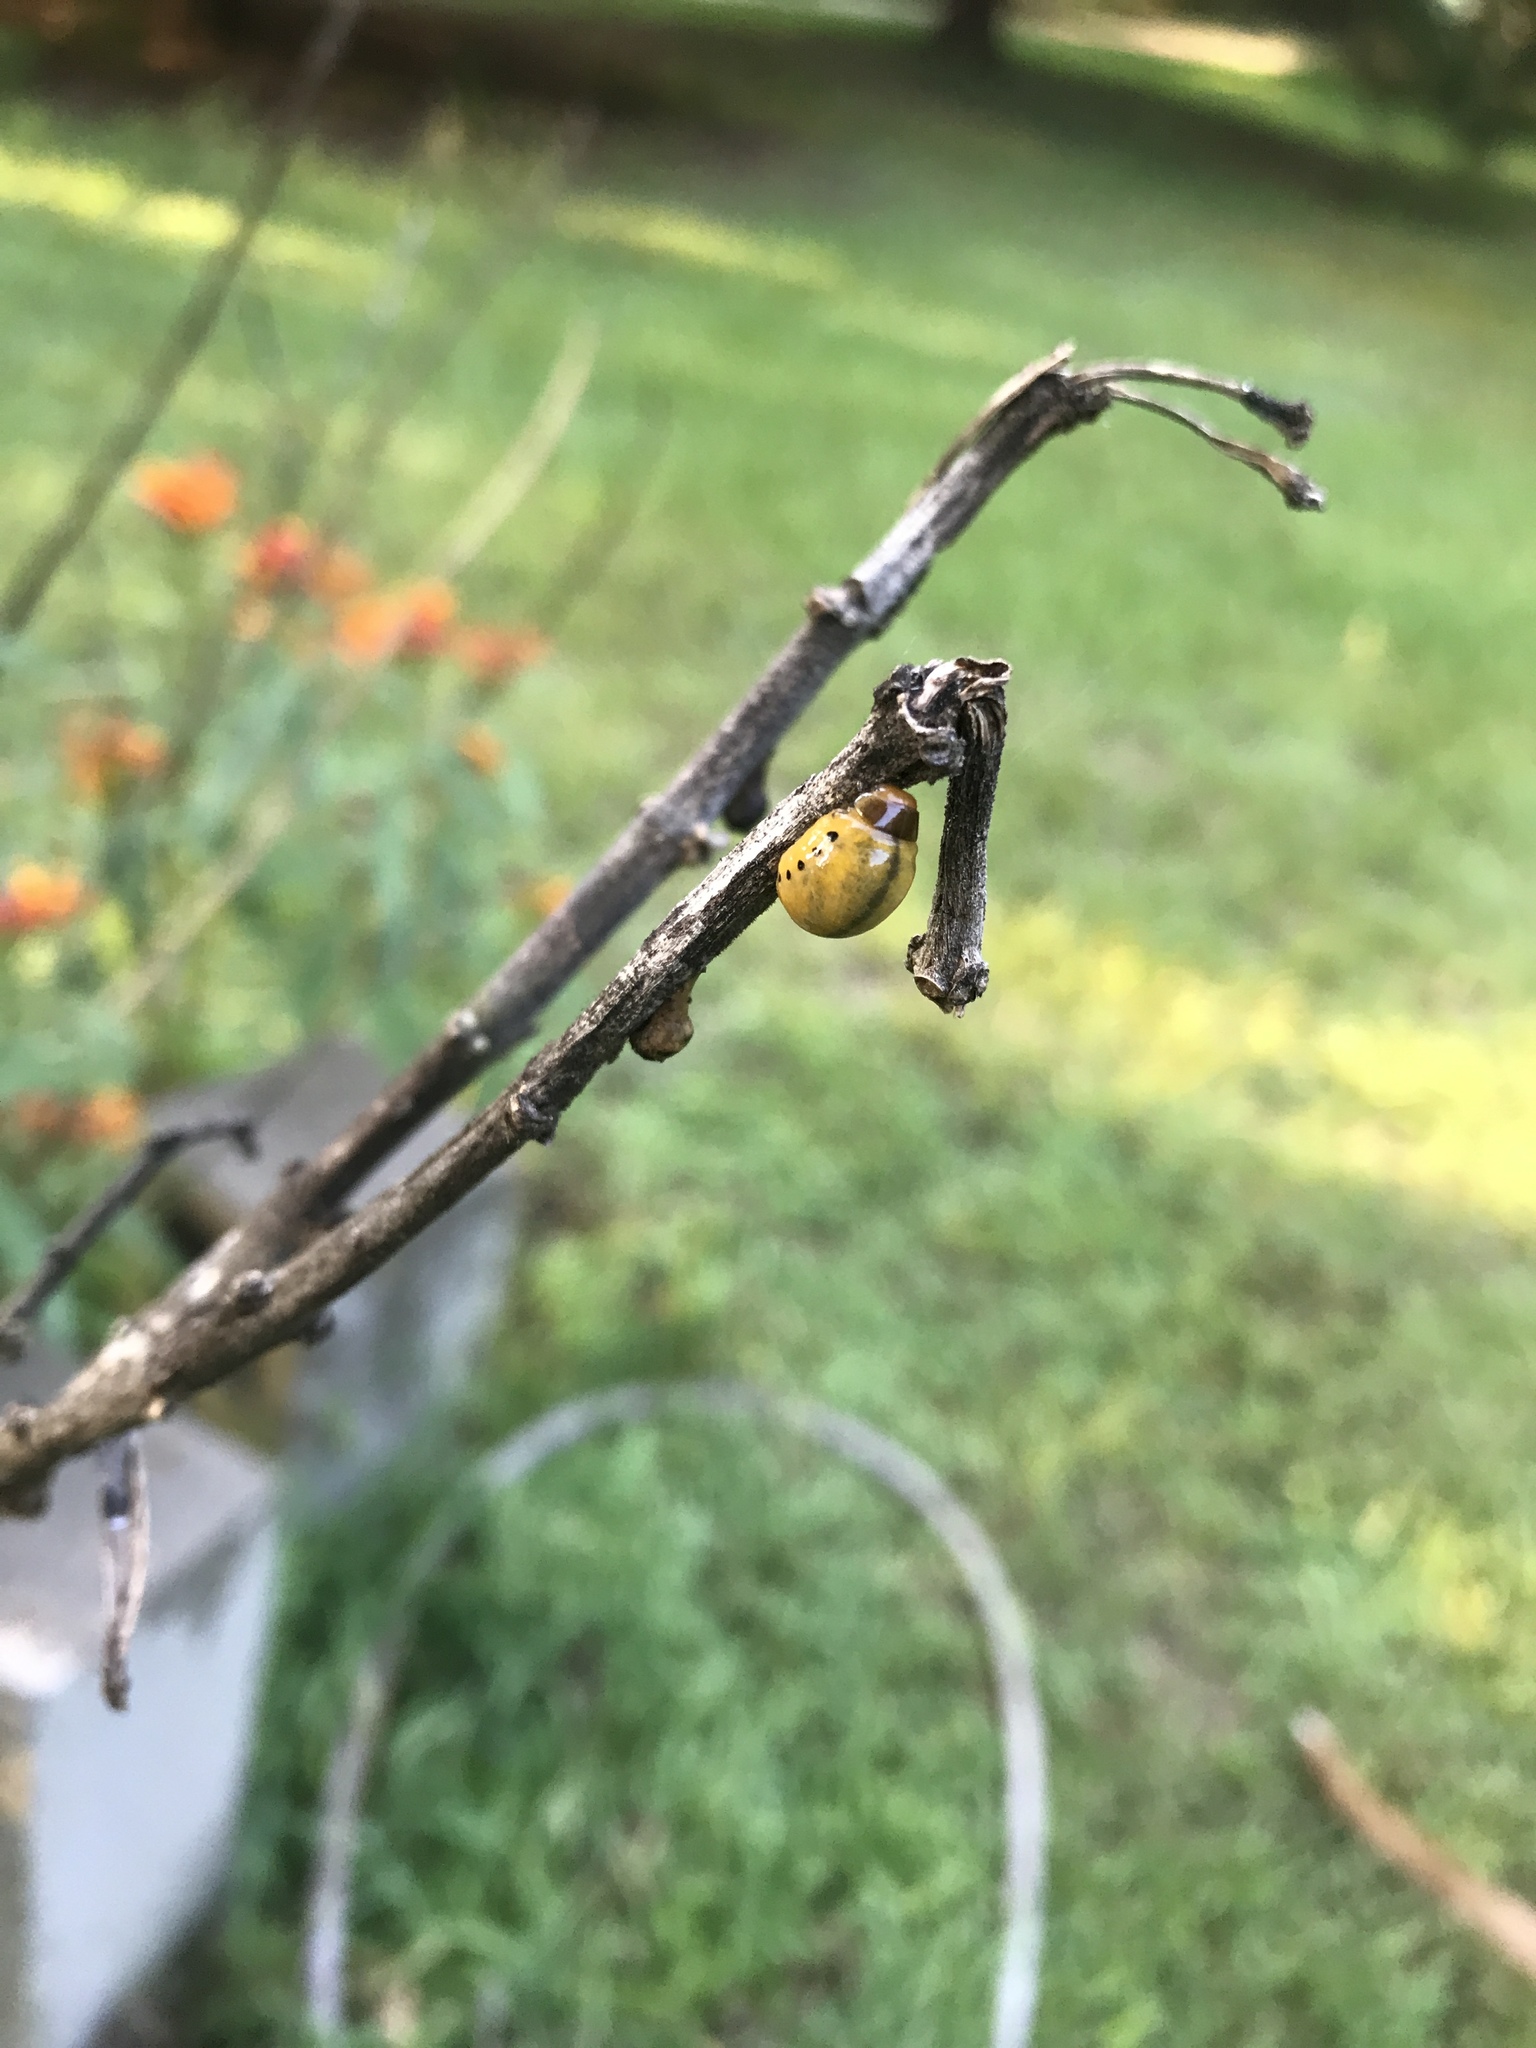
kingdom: Animalia
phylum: Arthropoda
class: Insecta
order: Coleoptera
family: Chrysomelidae
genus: Leptinotarsa
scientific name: Leptinotarsa juncta
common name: False potato beetle
